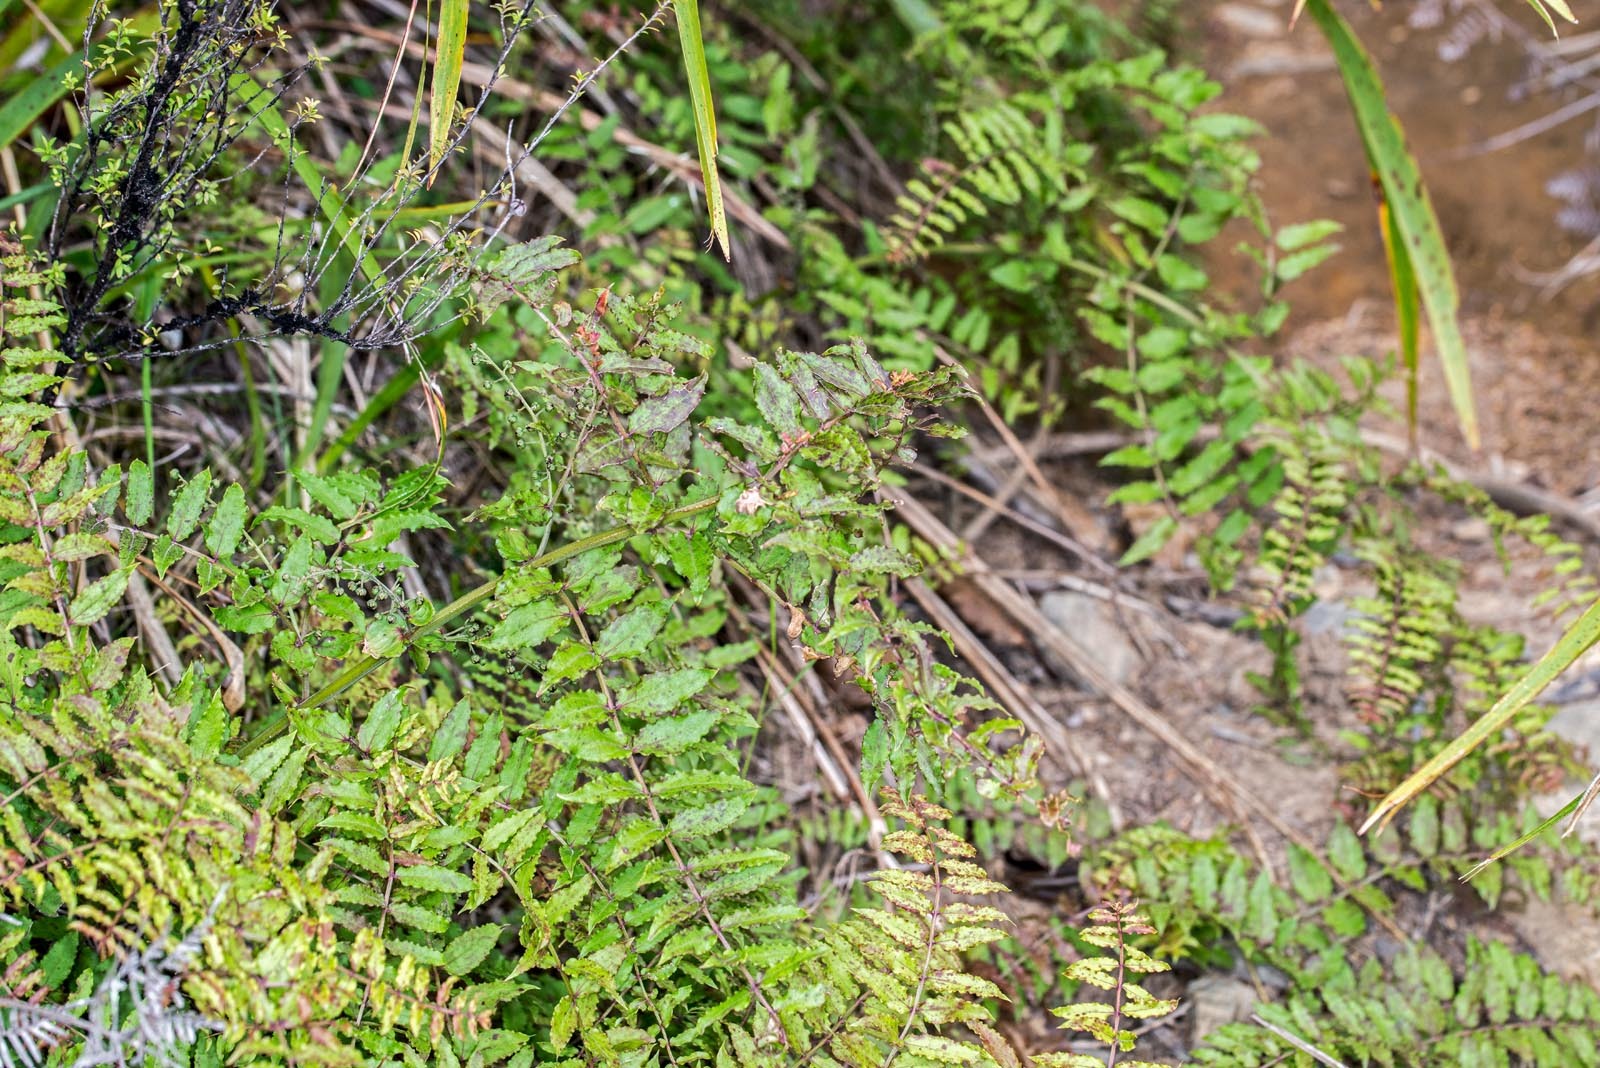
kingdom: Plantae
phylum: Tracheophyta
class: Magnoliopsida
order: Cucurbitales
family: Coriariaceae
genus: Coriaria
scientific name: Coriaria kingiana
